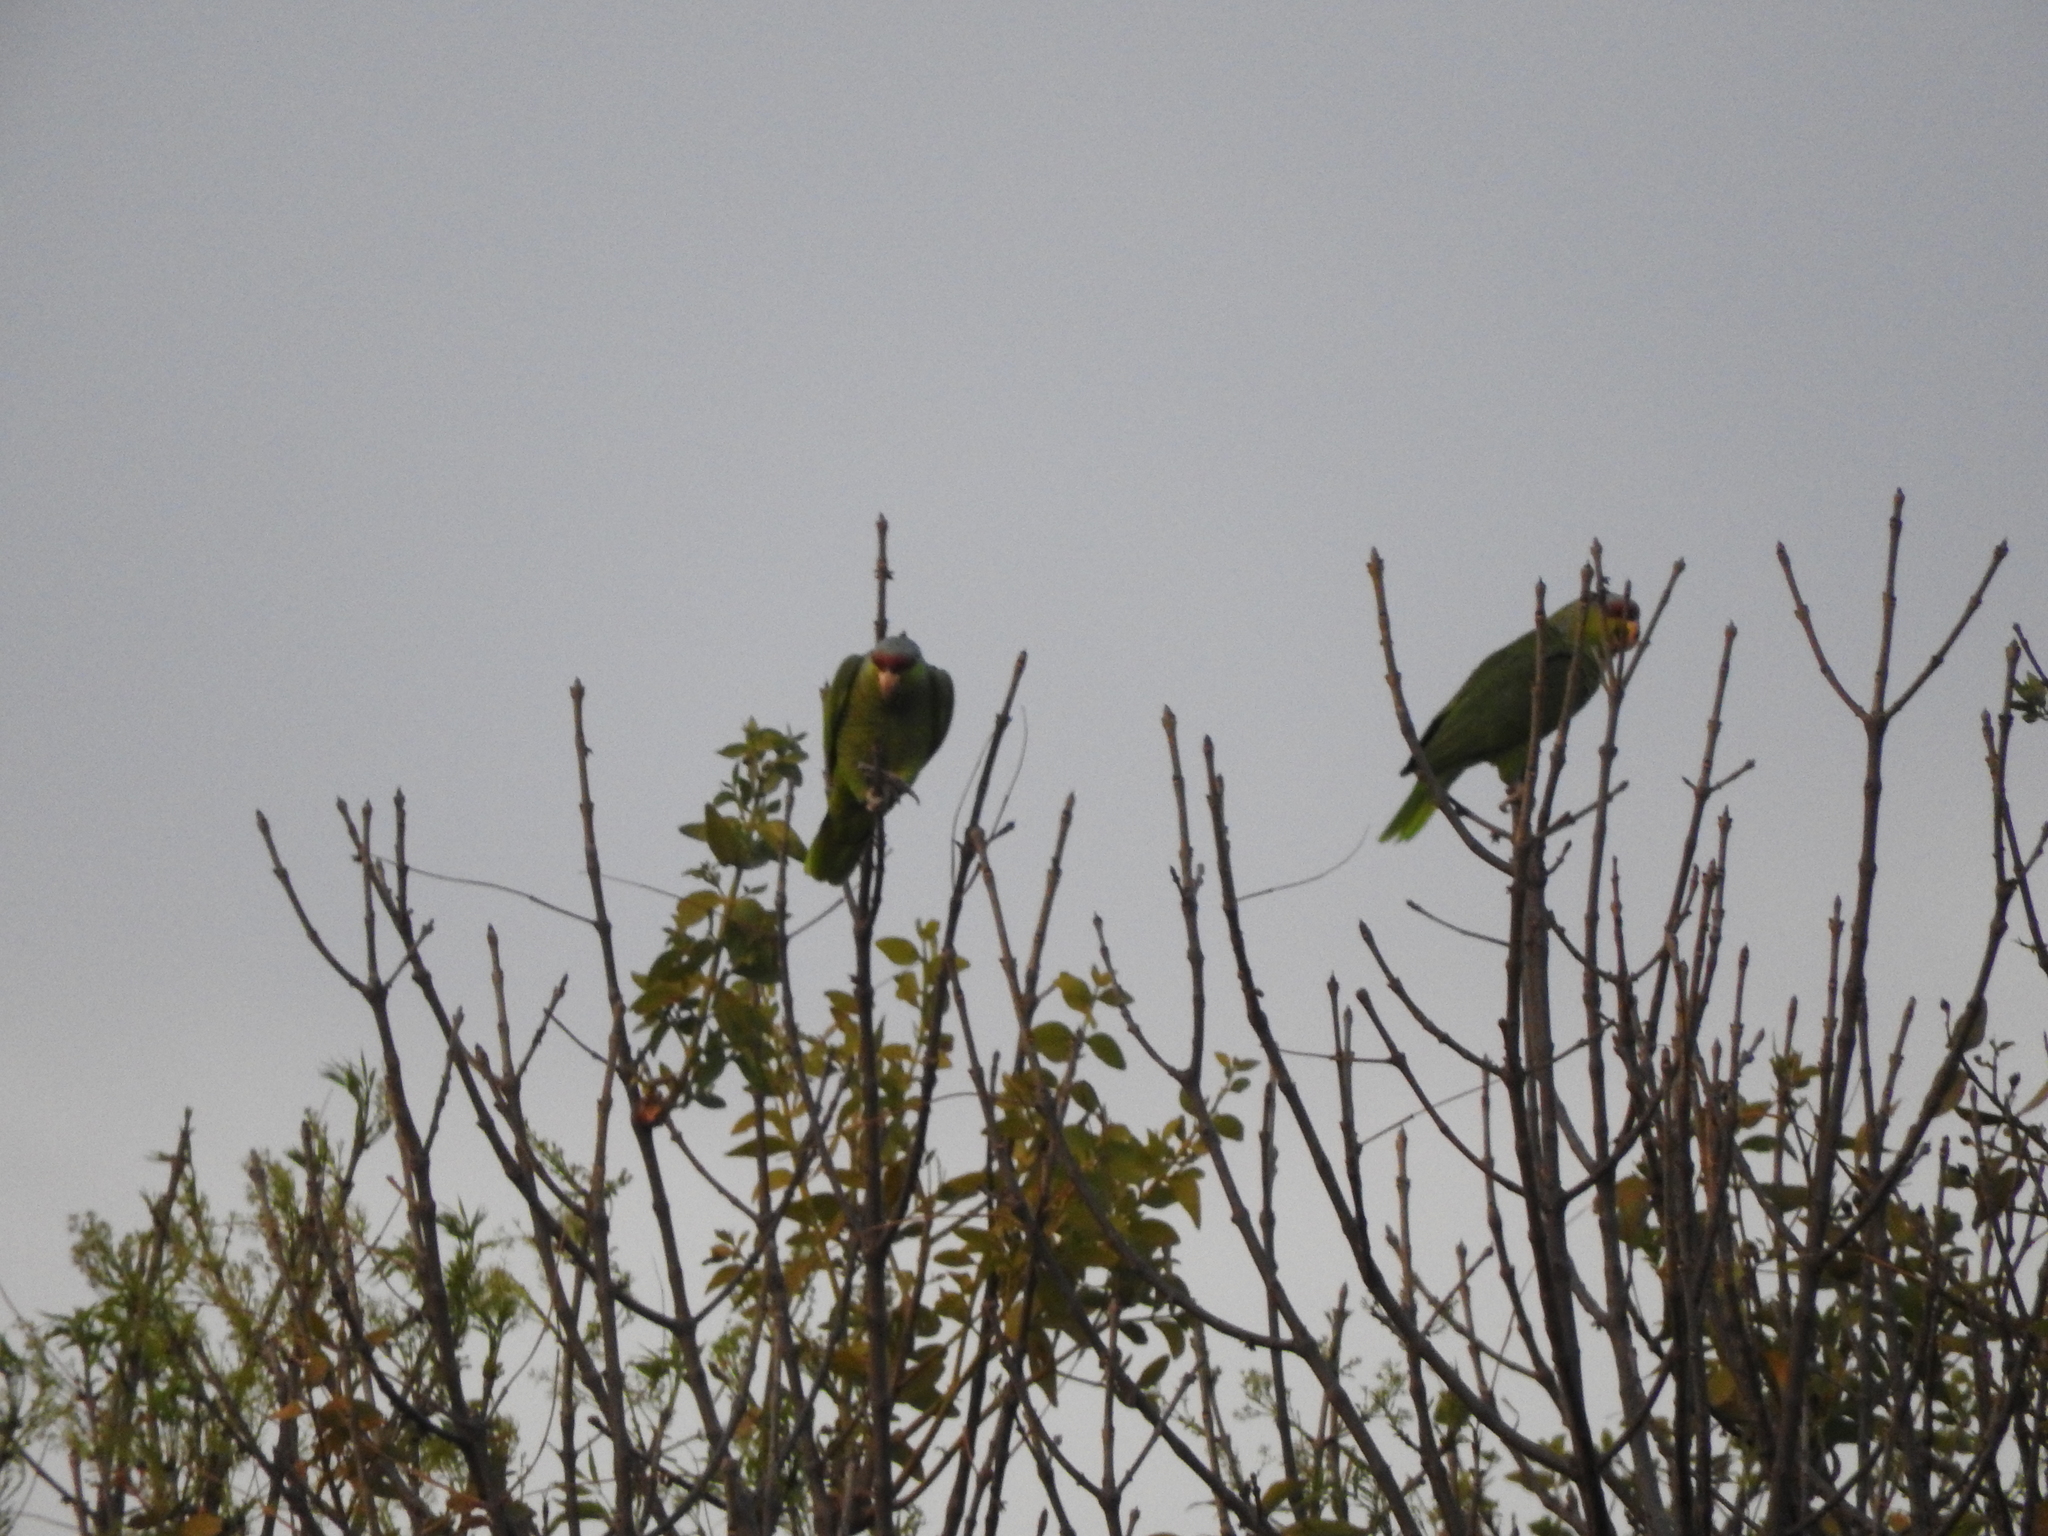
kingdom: Animalia
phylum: Chordata
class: Aves
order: Psittaciformes
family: Psittacidae
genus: Amazona
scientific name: Amazona finschi
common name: Lilac-crowned amazon
